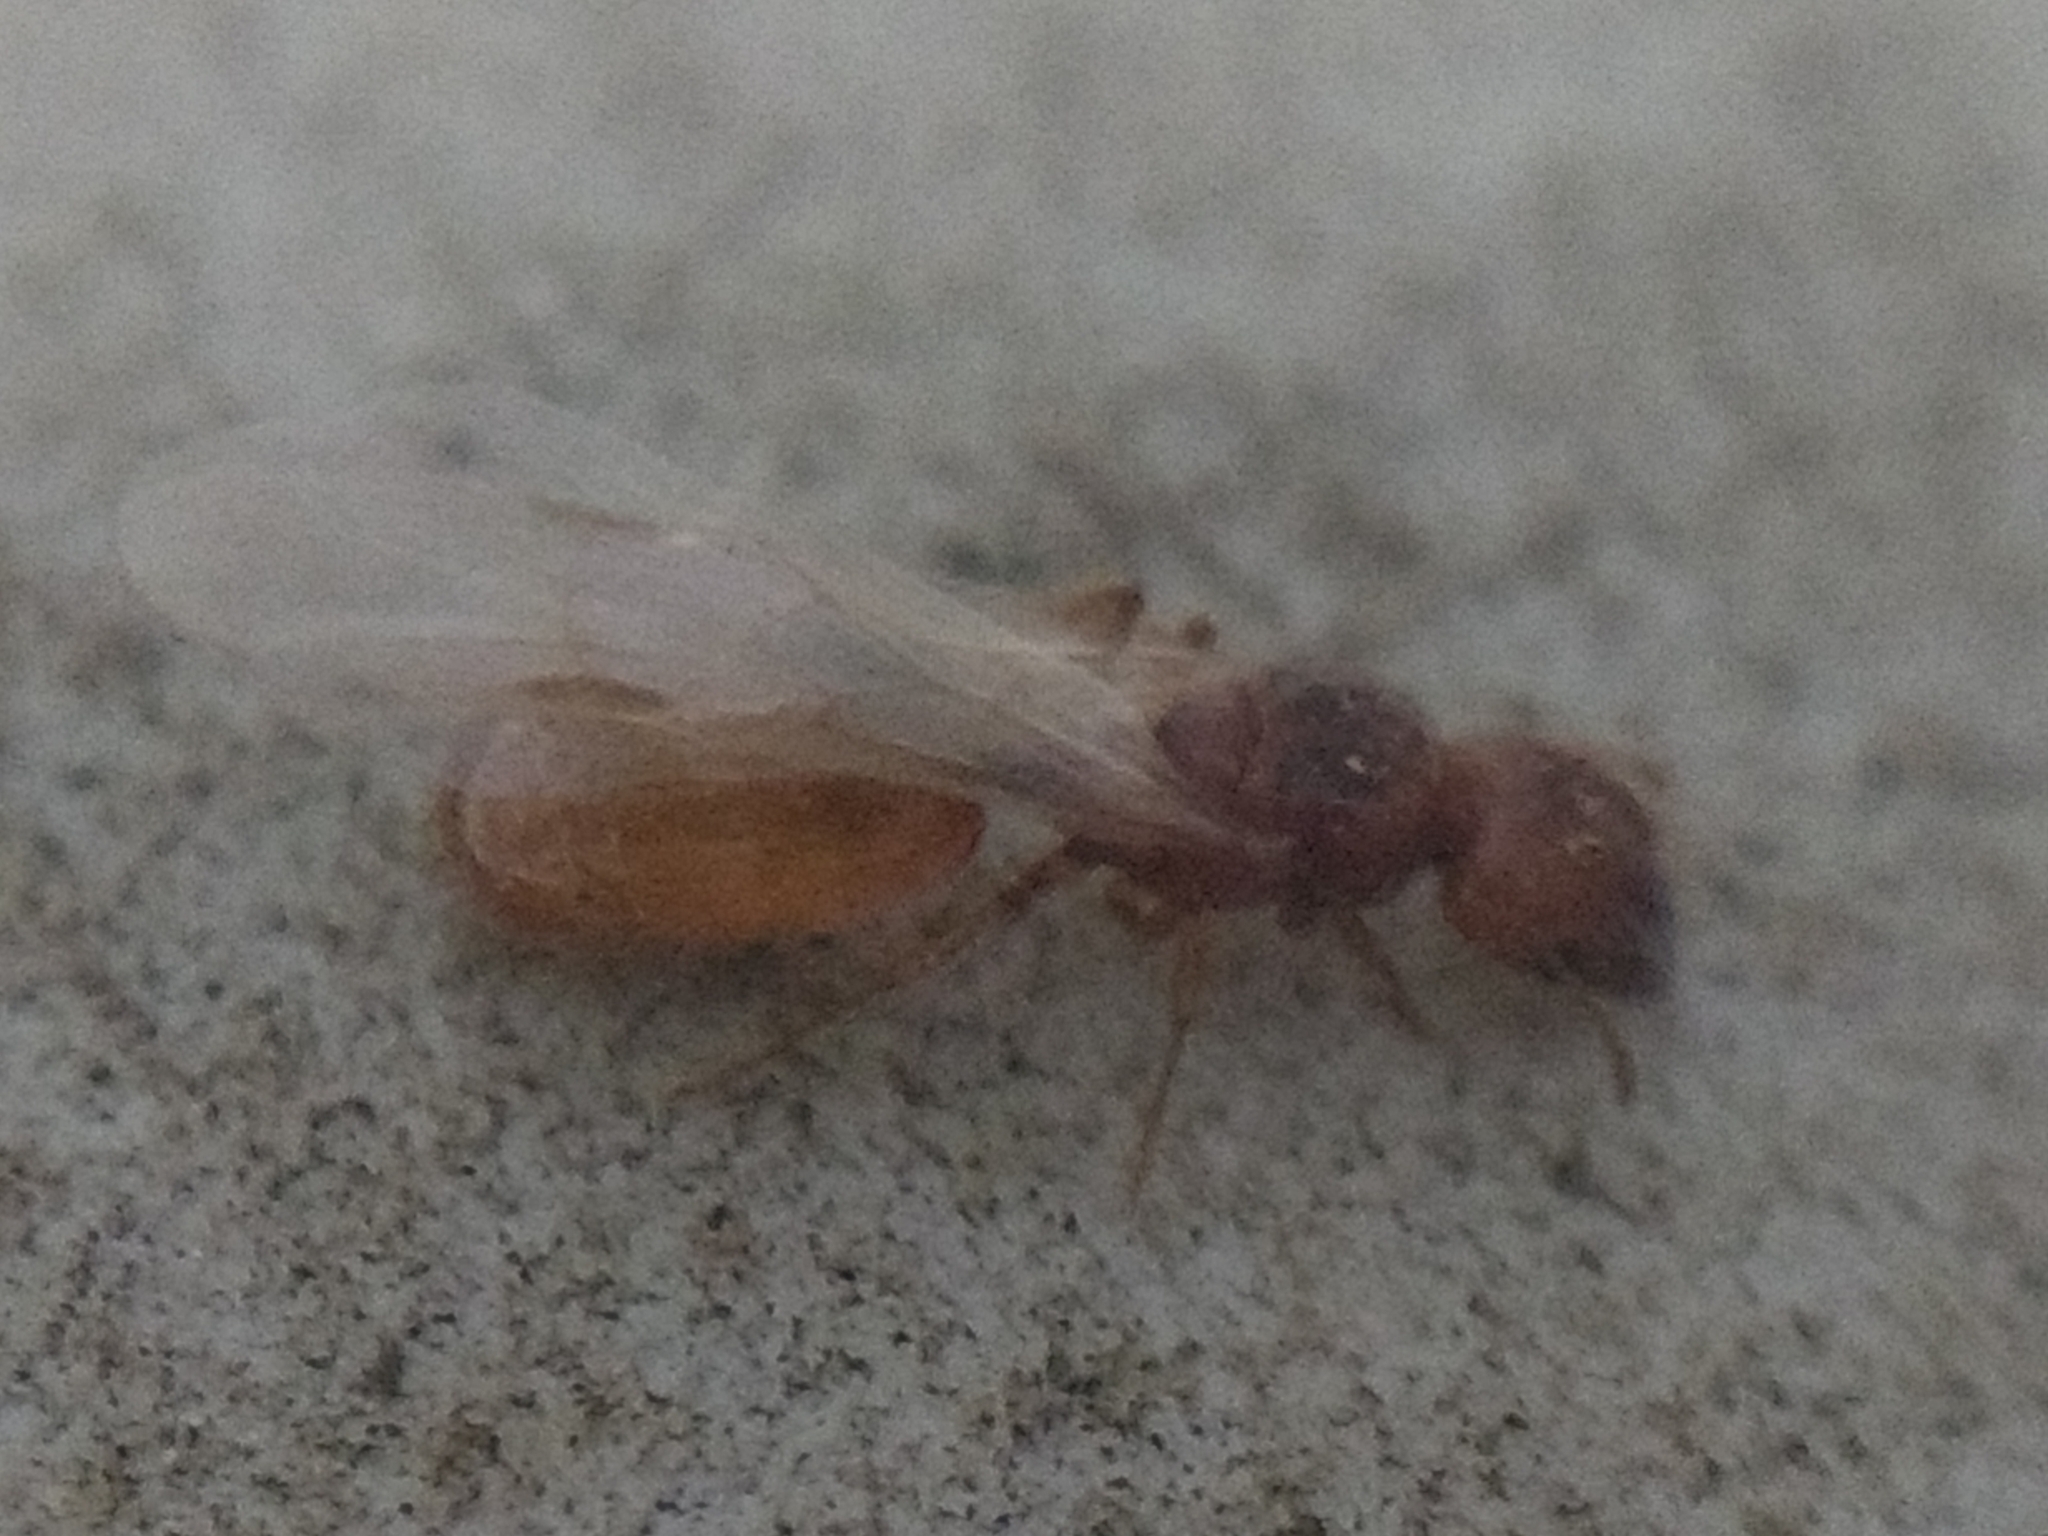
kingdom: Animalia
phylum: Arthropoda
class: Insecta
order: Hymenoptera
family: Formicidae
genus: Pheidole
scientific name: Pheidole cerebrosior
